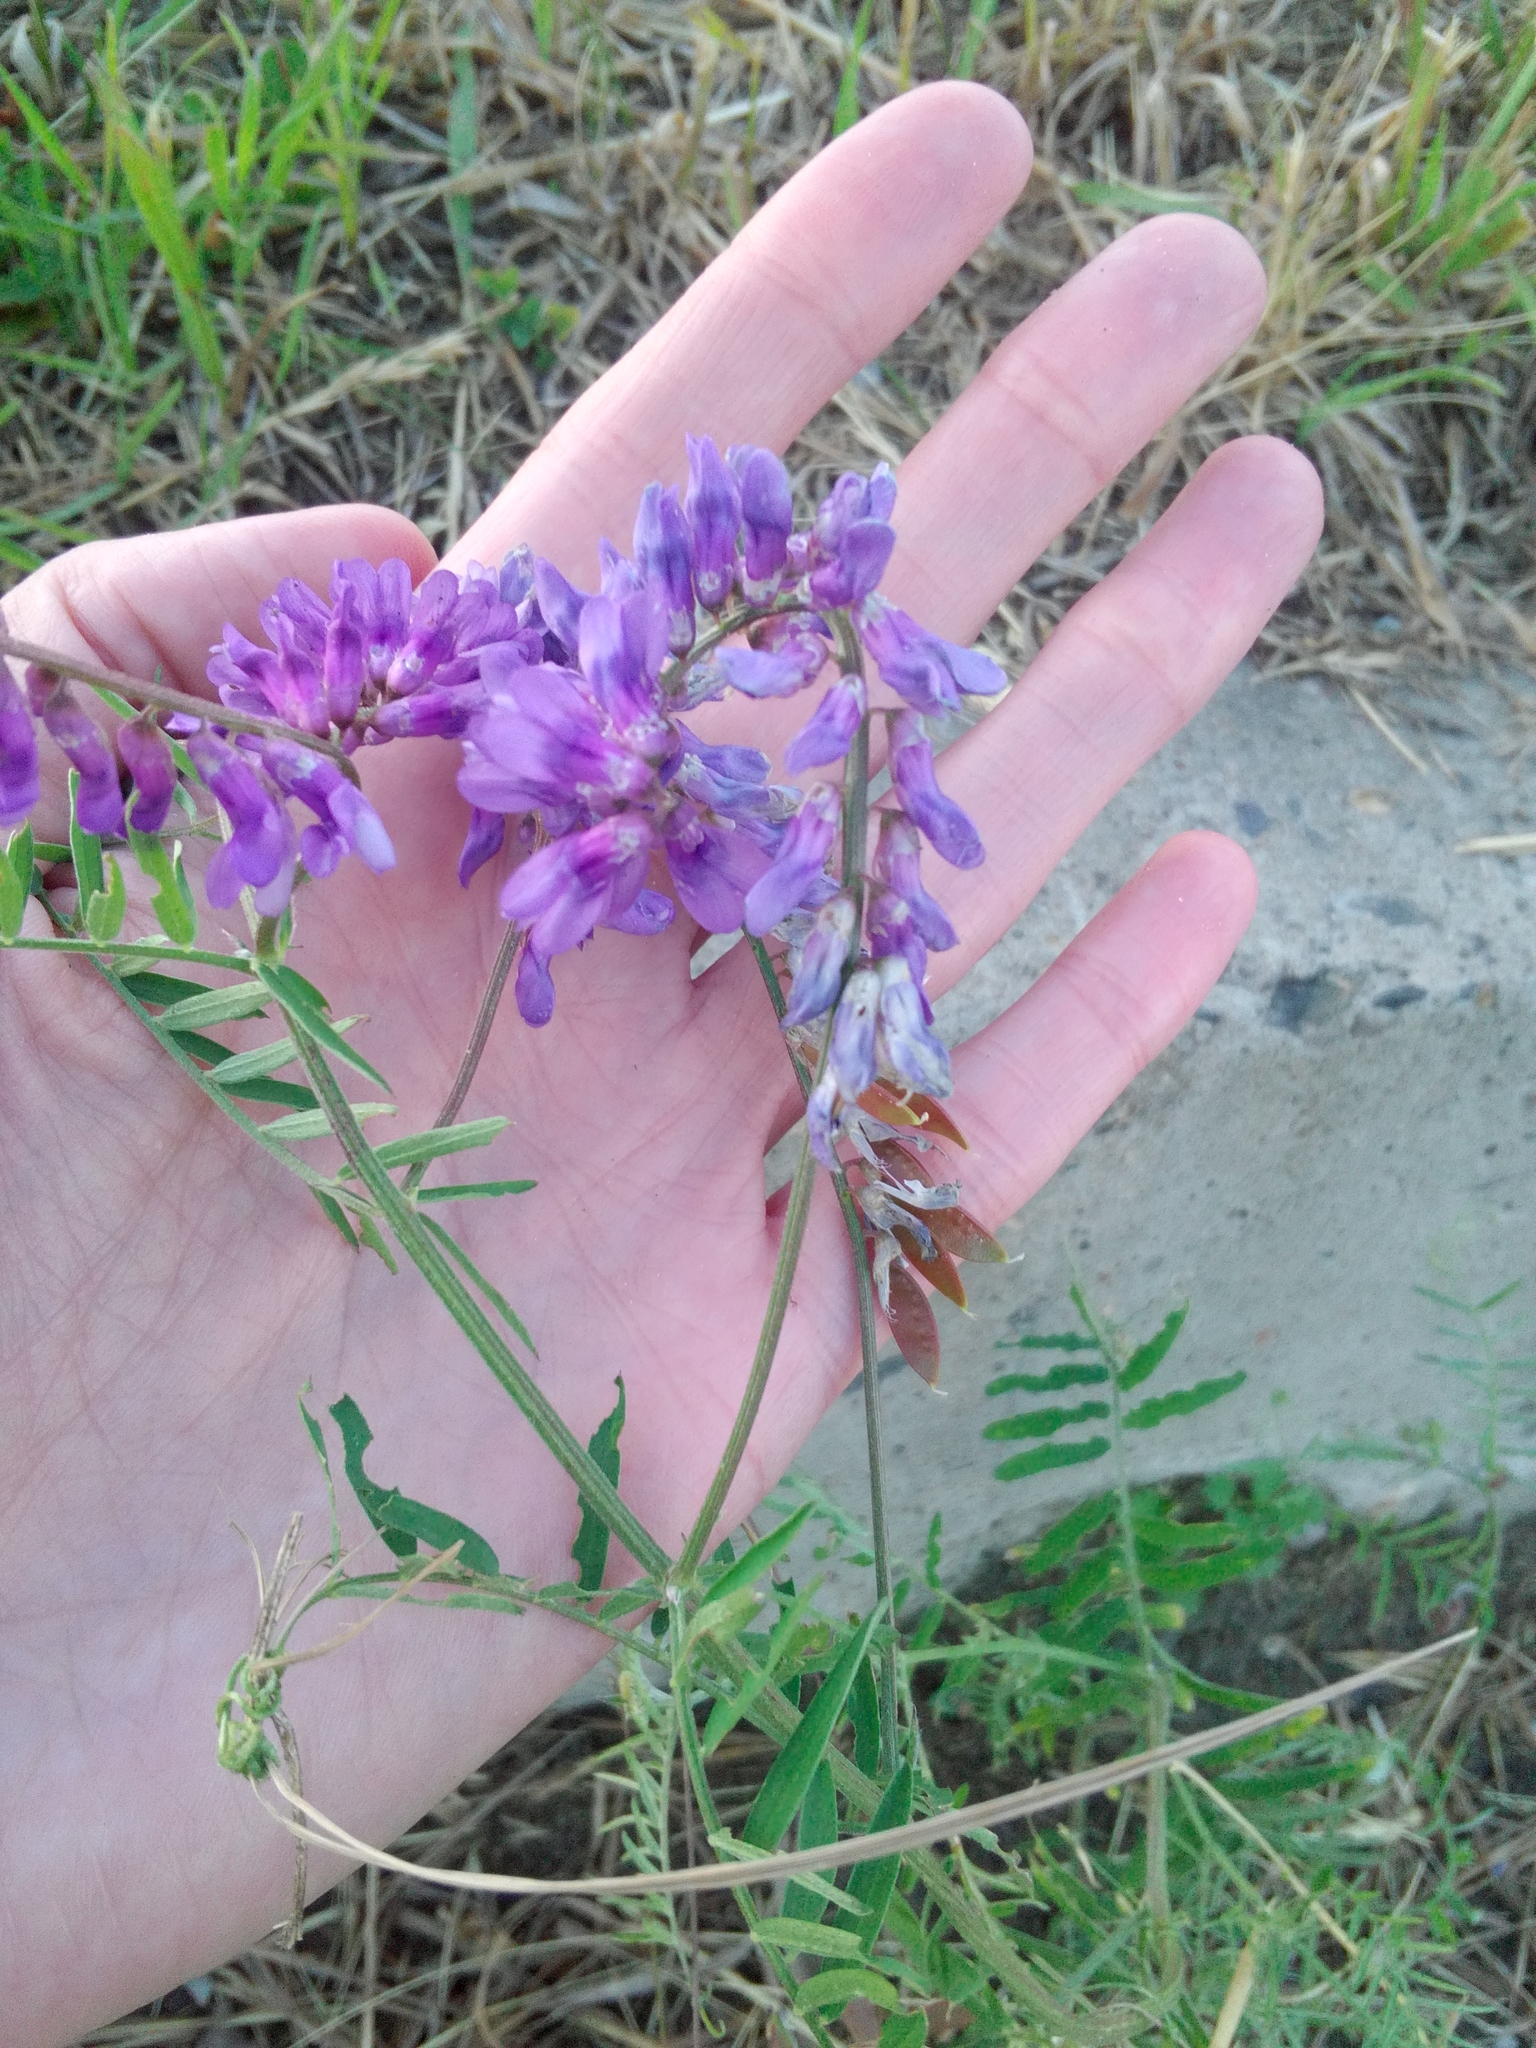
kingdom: Plantae
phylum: Tracheophyta
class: Magnoliopsida
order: Fabales
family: Fabaceae
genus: Vicia
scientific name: Vicia cracca
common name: Bird vetch
